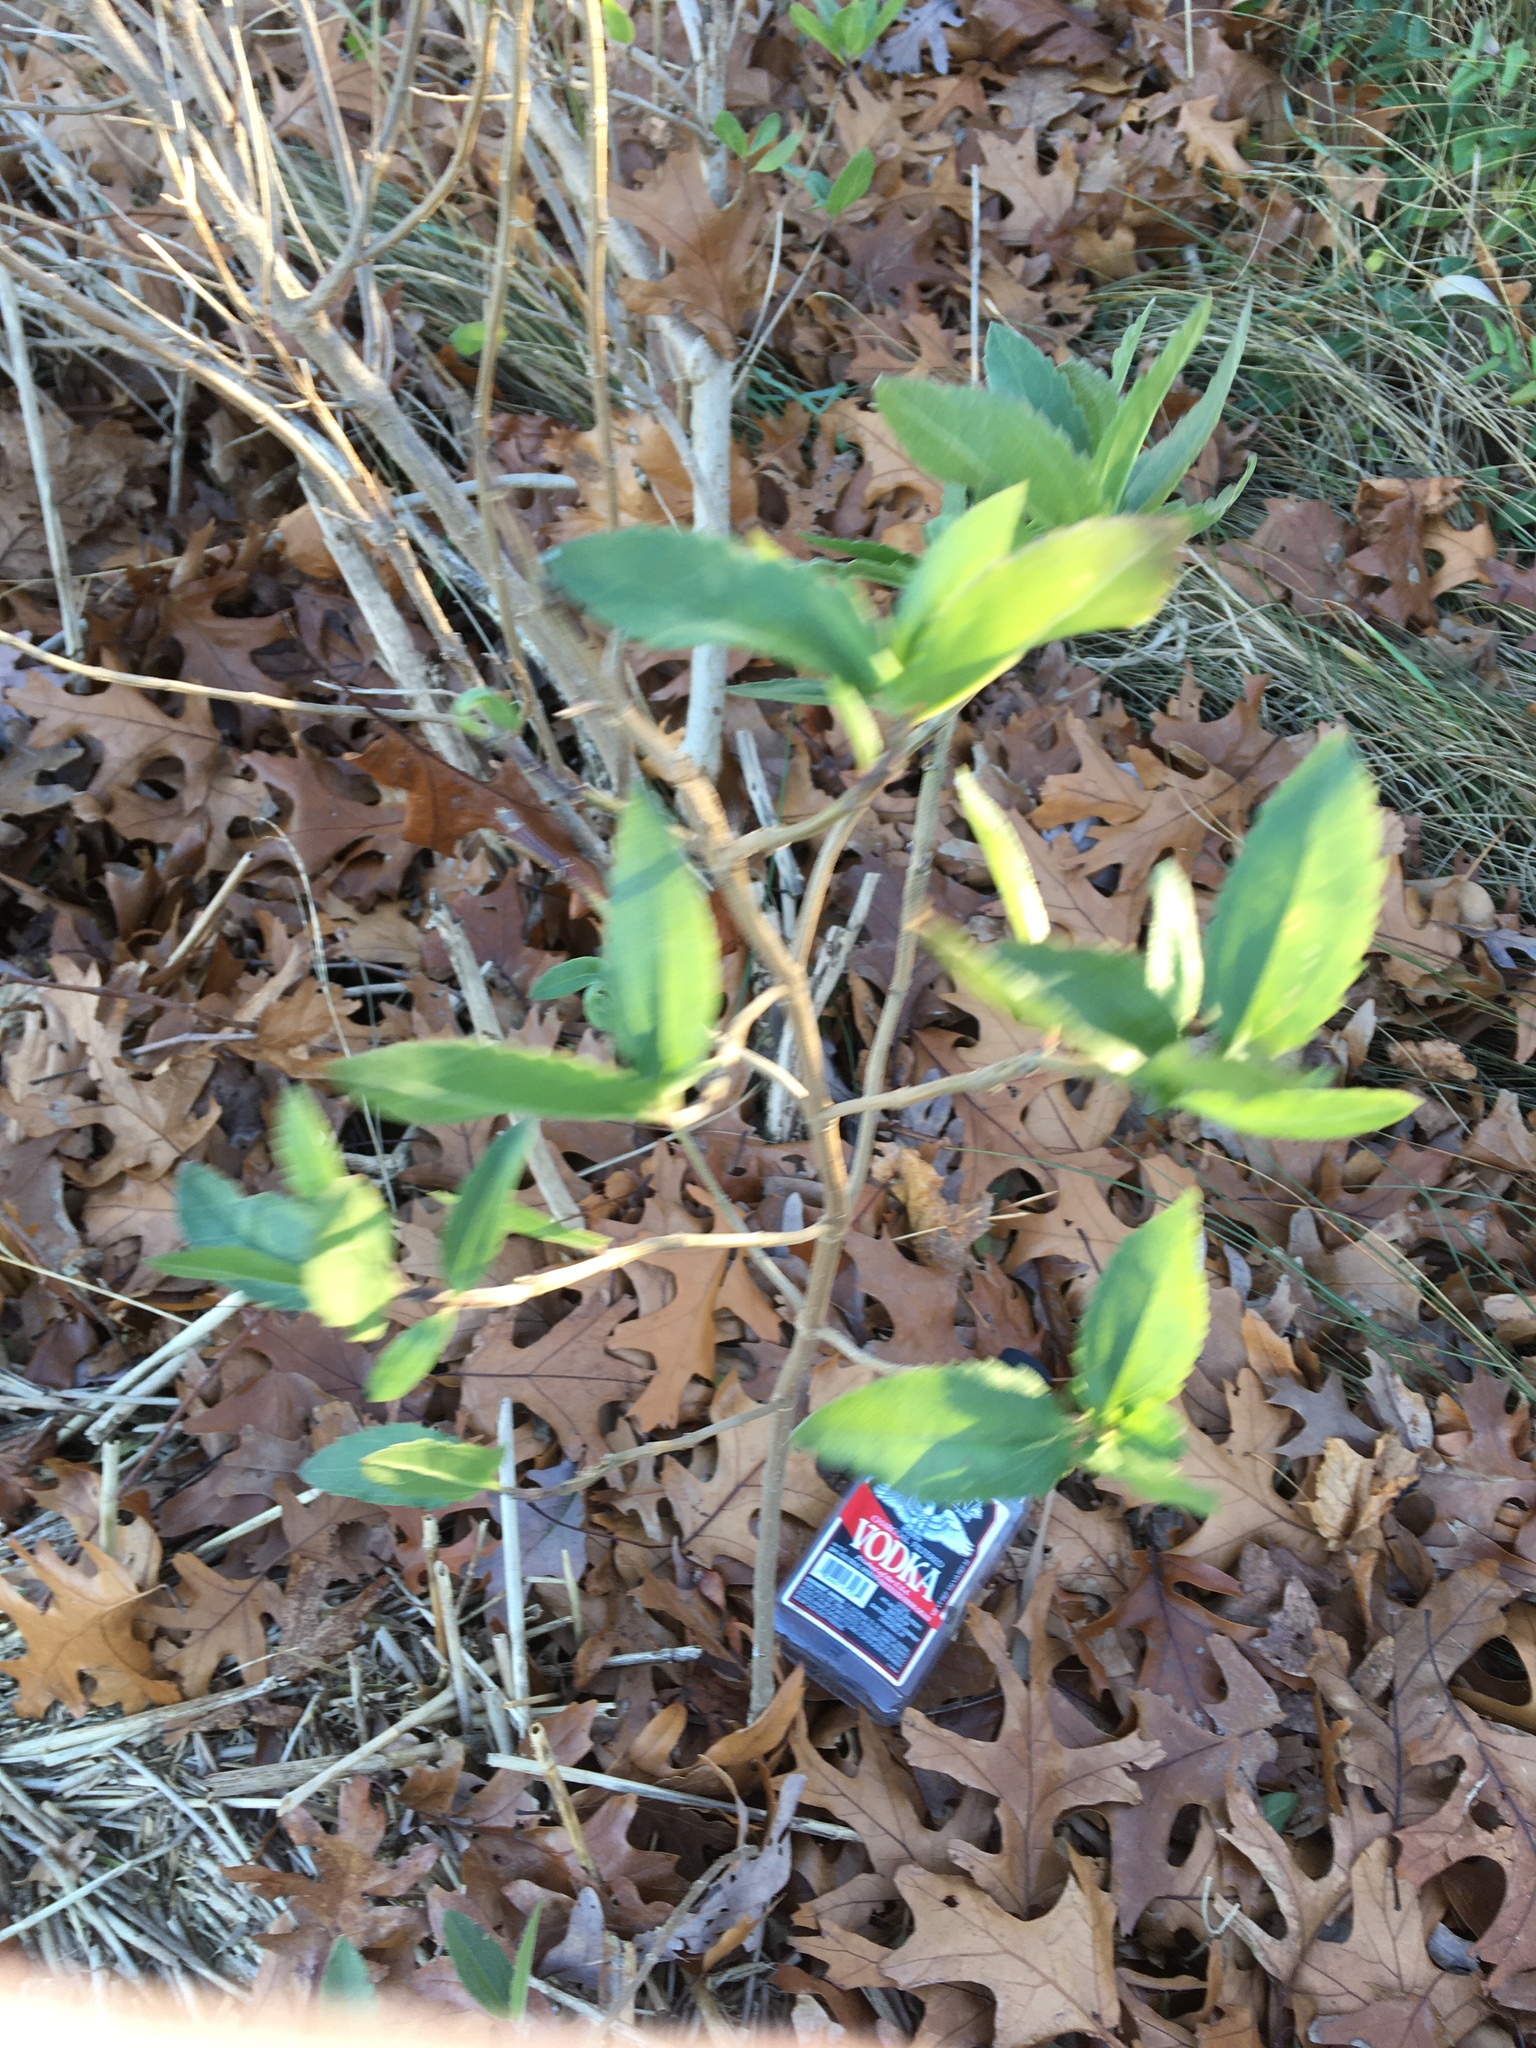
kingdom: Plantae
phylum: Tracheophyta
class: Magnoliopsida
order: Asterales
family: Asteraceae
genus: Iva
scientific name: Iva frutescens
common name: Big-leaved marsh-elder
